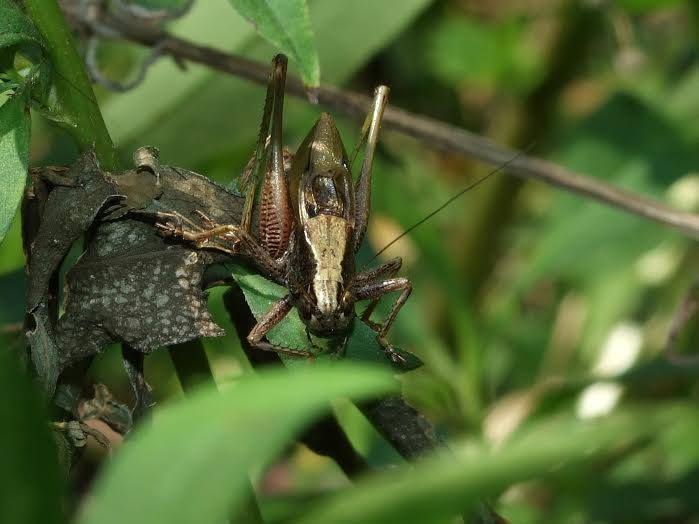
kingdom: Animalia
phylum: Arthropoda
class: Insecta
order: Orthoptera
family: Tettigoniidae
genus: Zeuneriana
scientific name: Zeuneriana amplipennis
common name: Danube wide-winged bush-cricket
